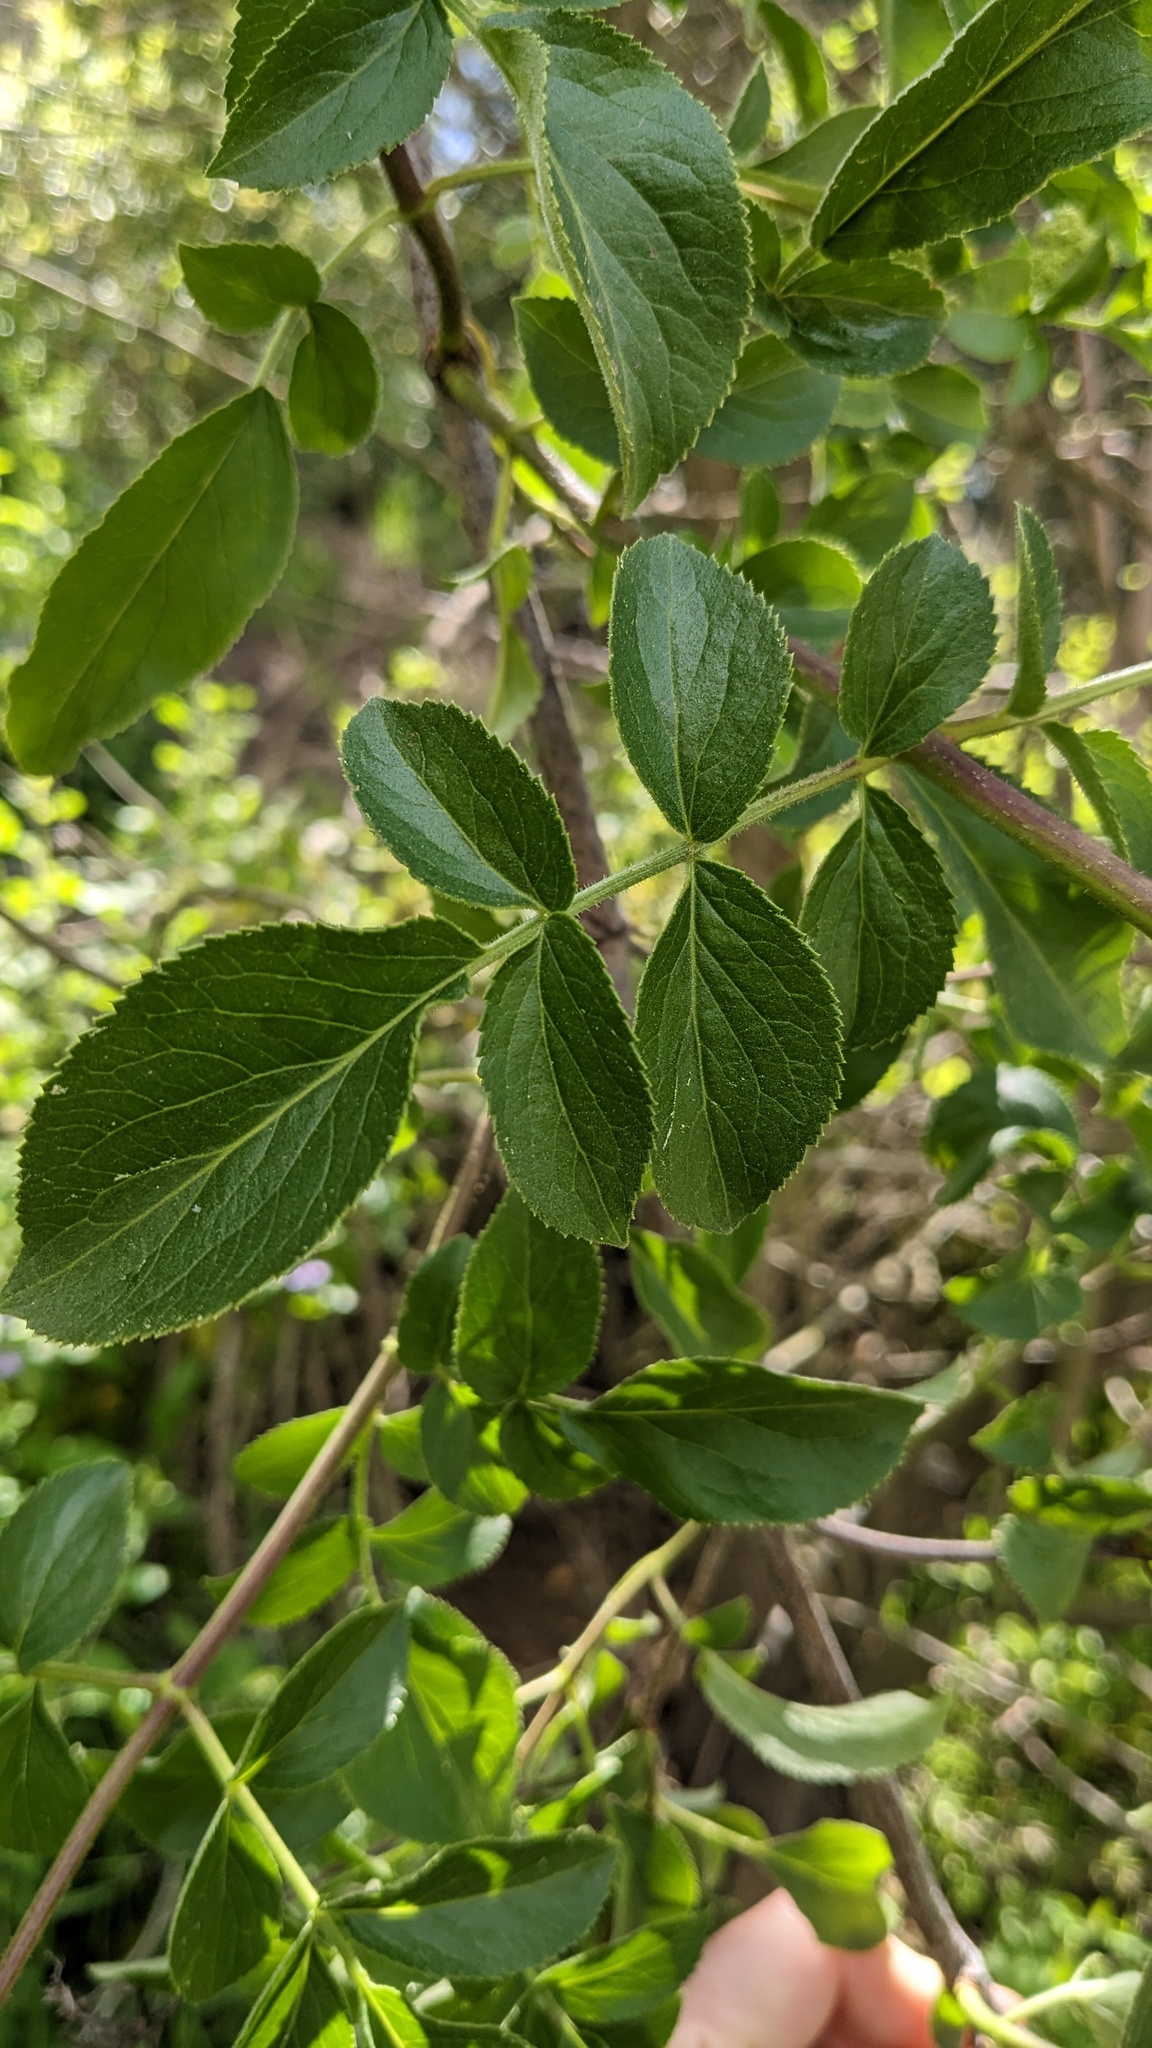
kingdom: Plantae
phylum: Tracheophyta
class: Magnoliopsida
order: Dipsacales
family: Viburnaceae
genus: Sambucus
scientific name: Sambucus cerulea
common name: Blue elder
